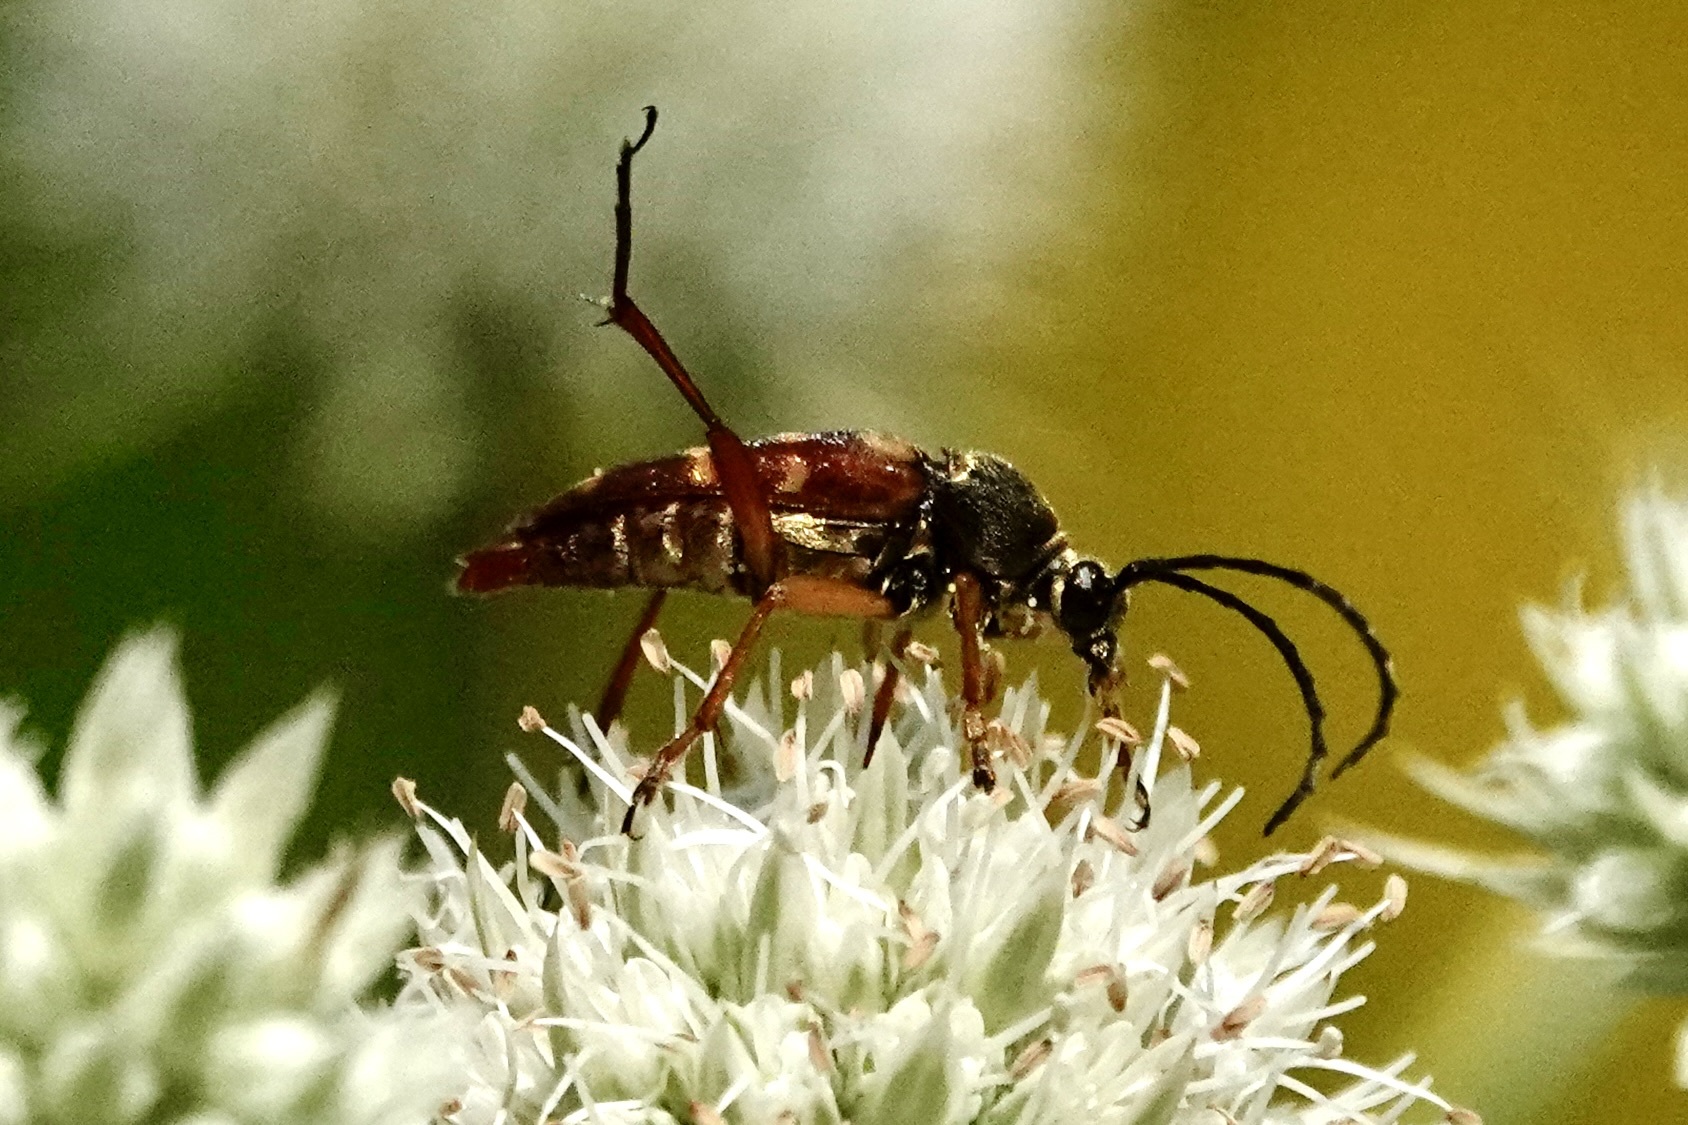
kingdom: Animalia
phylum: Arthropoda
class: Insecta
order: Coleoptera
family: Cerambycidae
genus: Typocerus
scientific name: Typocerus velutinus
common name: Banded longhorn beetle
